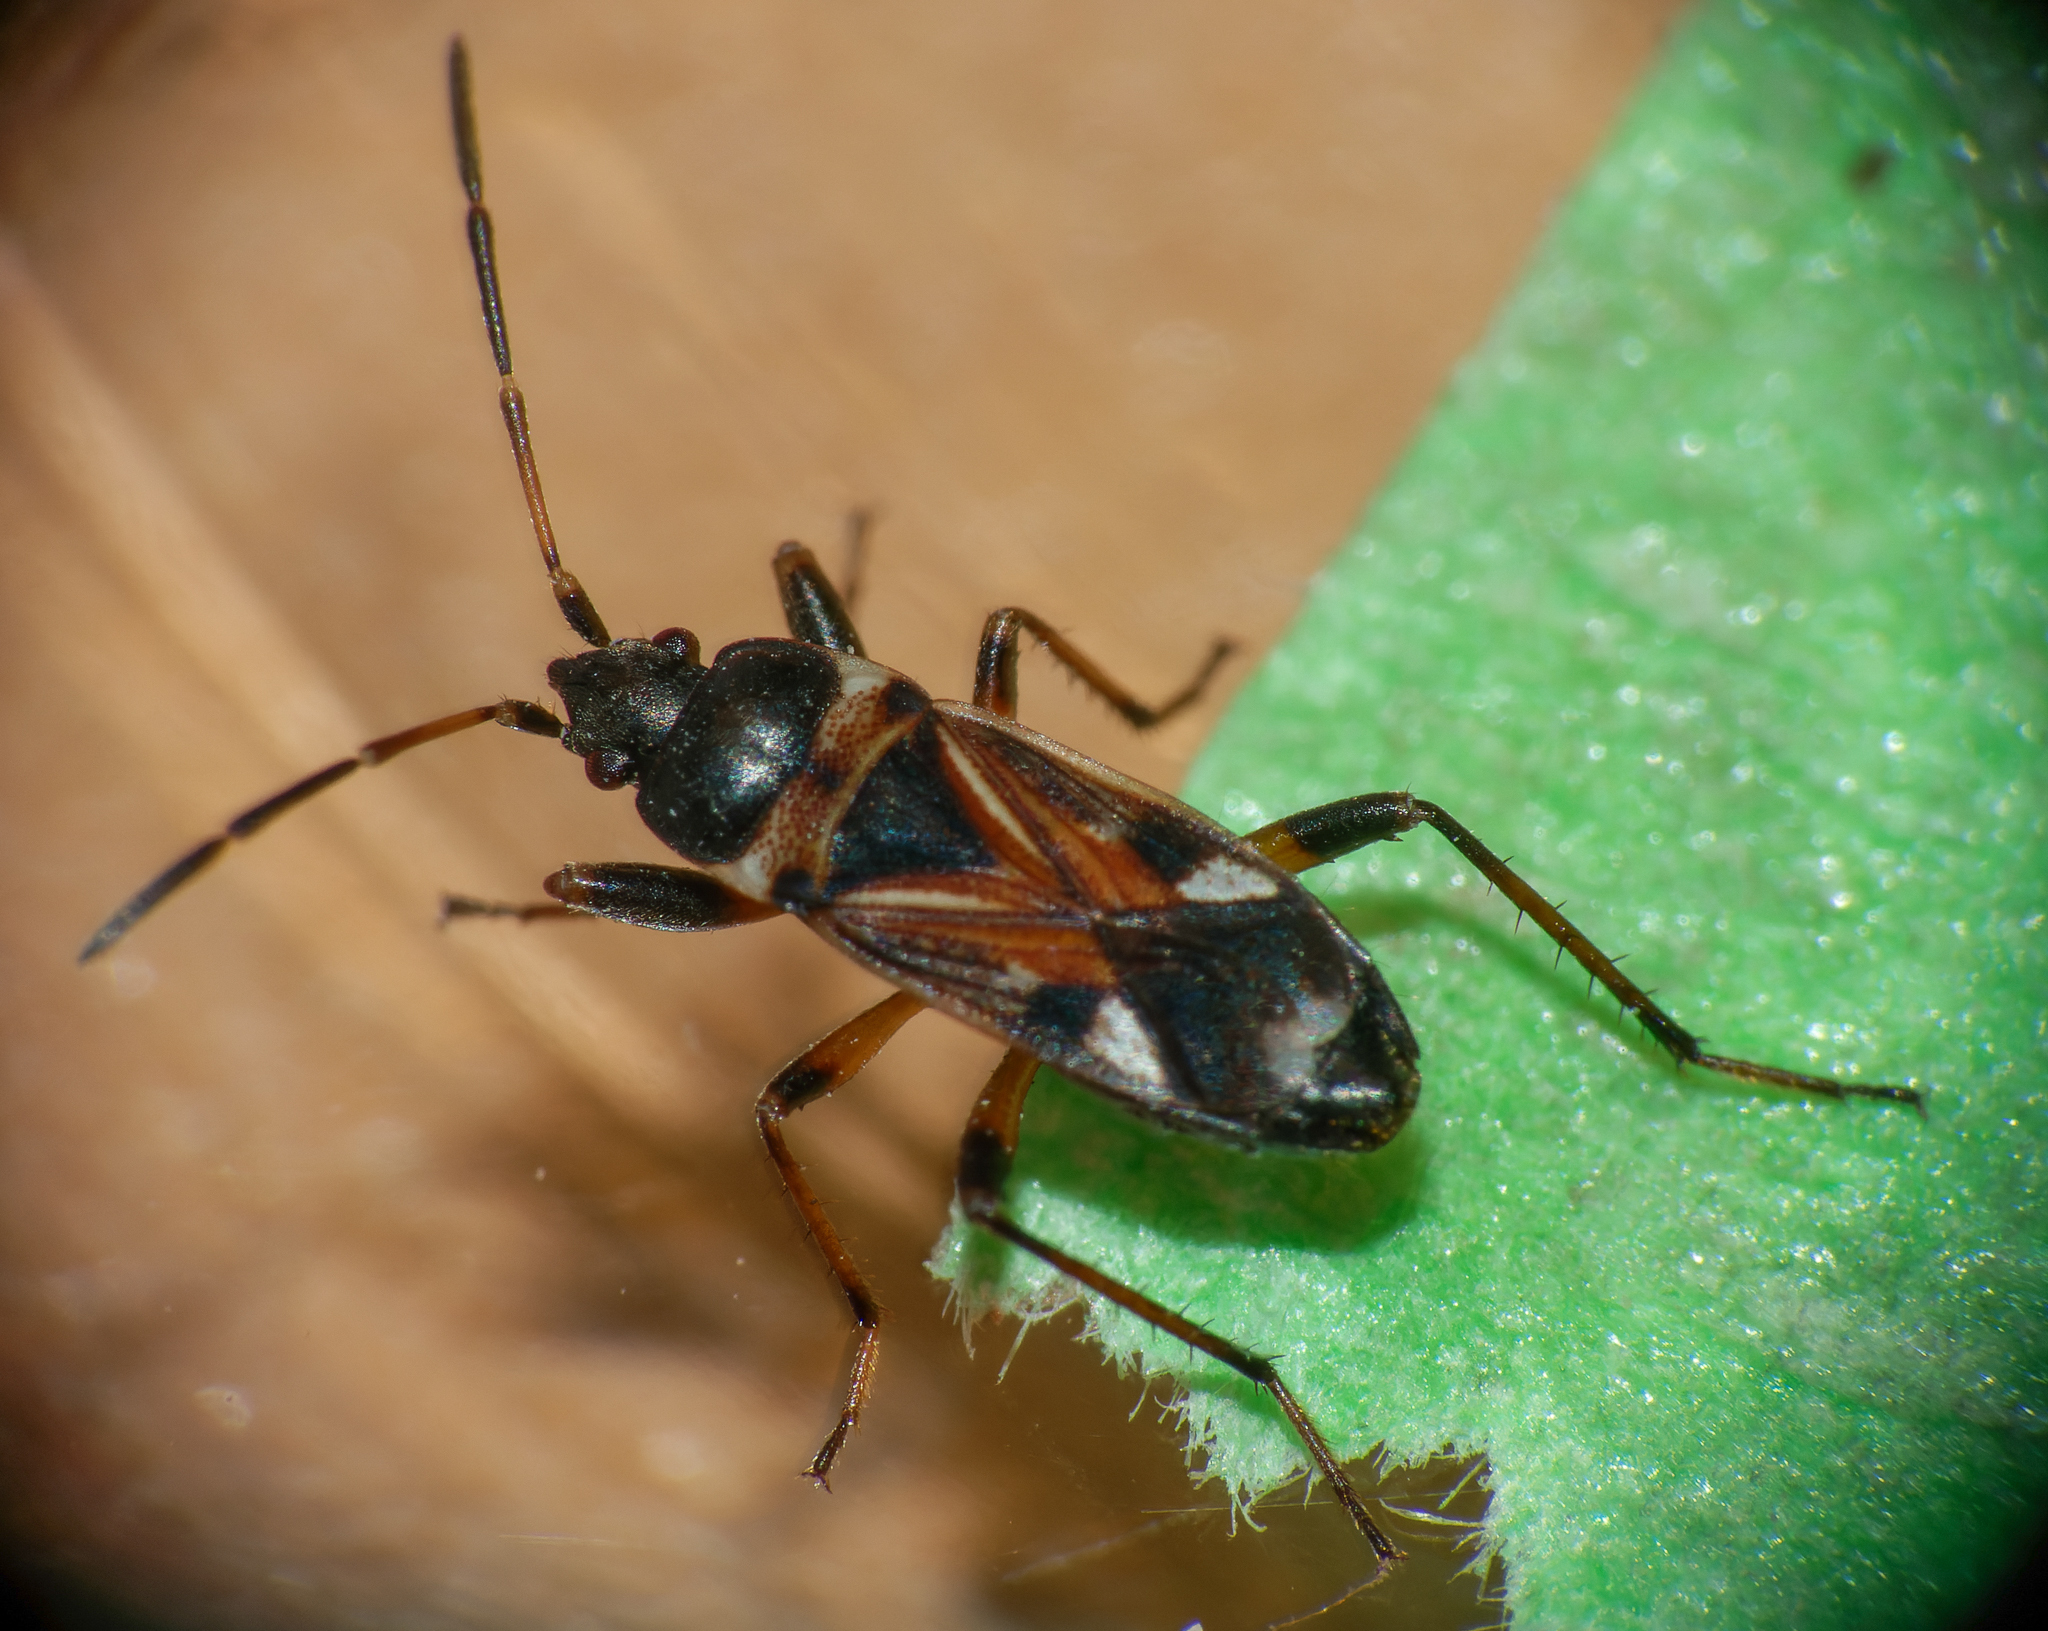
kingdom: Animalia
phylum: Arthropoda
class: Insecta
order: Hemiptera
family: Rhyparochromidae
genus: Raglius
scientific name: Raglius alboacuminatus
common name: Dirt-colored seed bug
